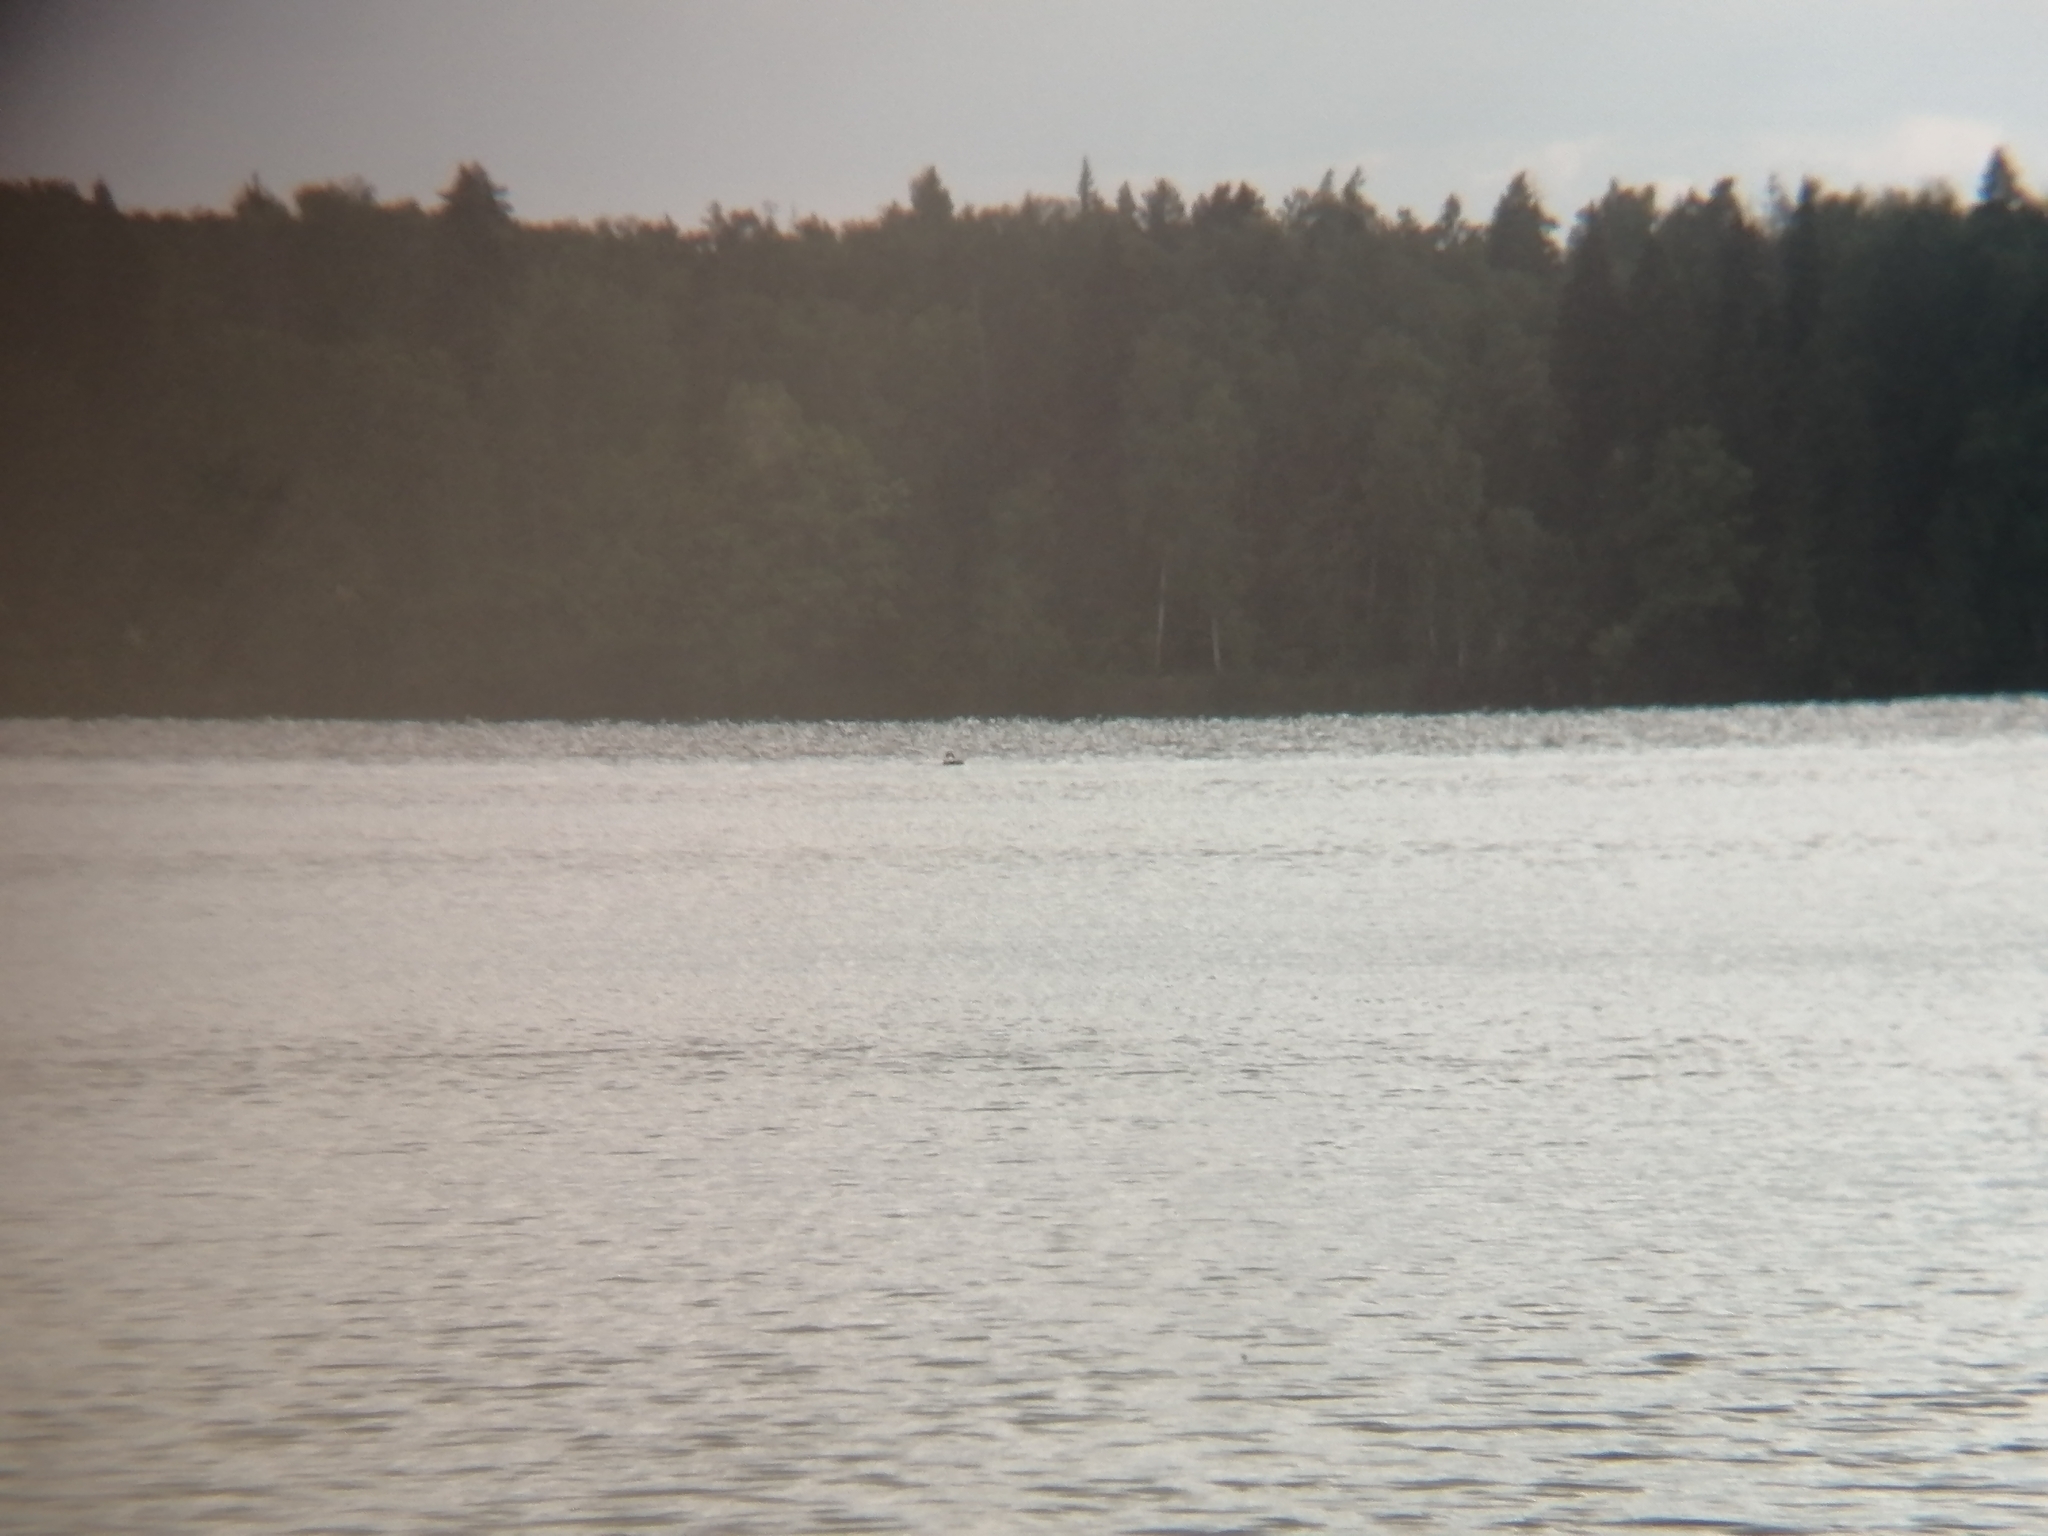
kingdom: Animalia
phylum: Chordata
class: Aves
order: Podicipediformes
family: Podicipedidae
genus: Podiceps
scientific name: Podiceps cristatus
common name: Great crested grebe
